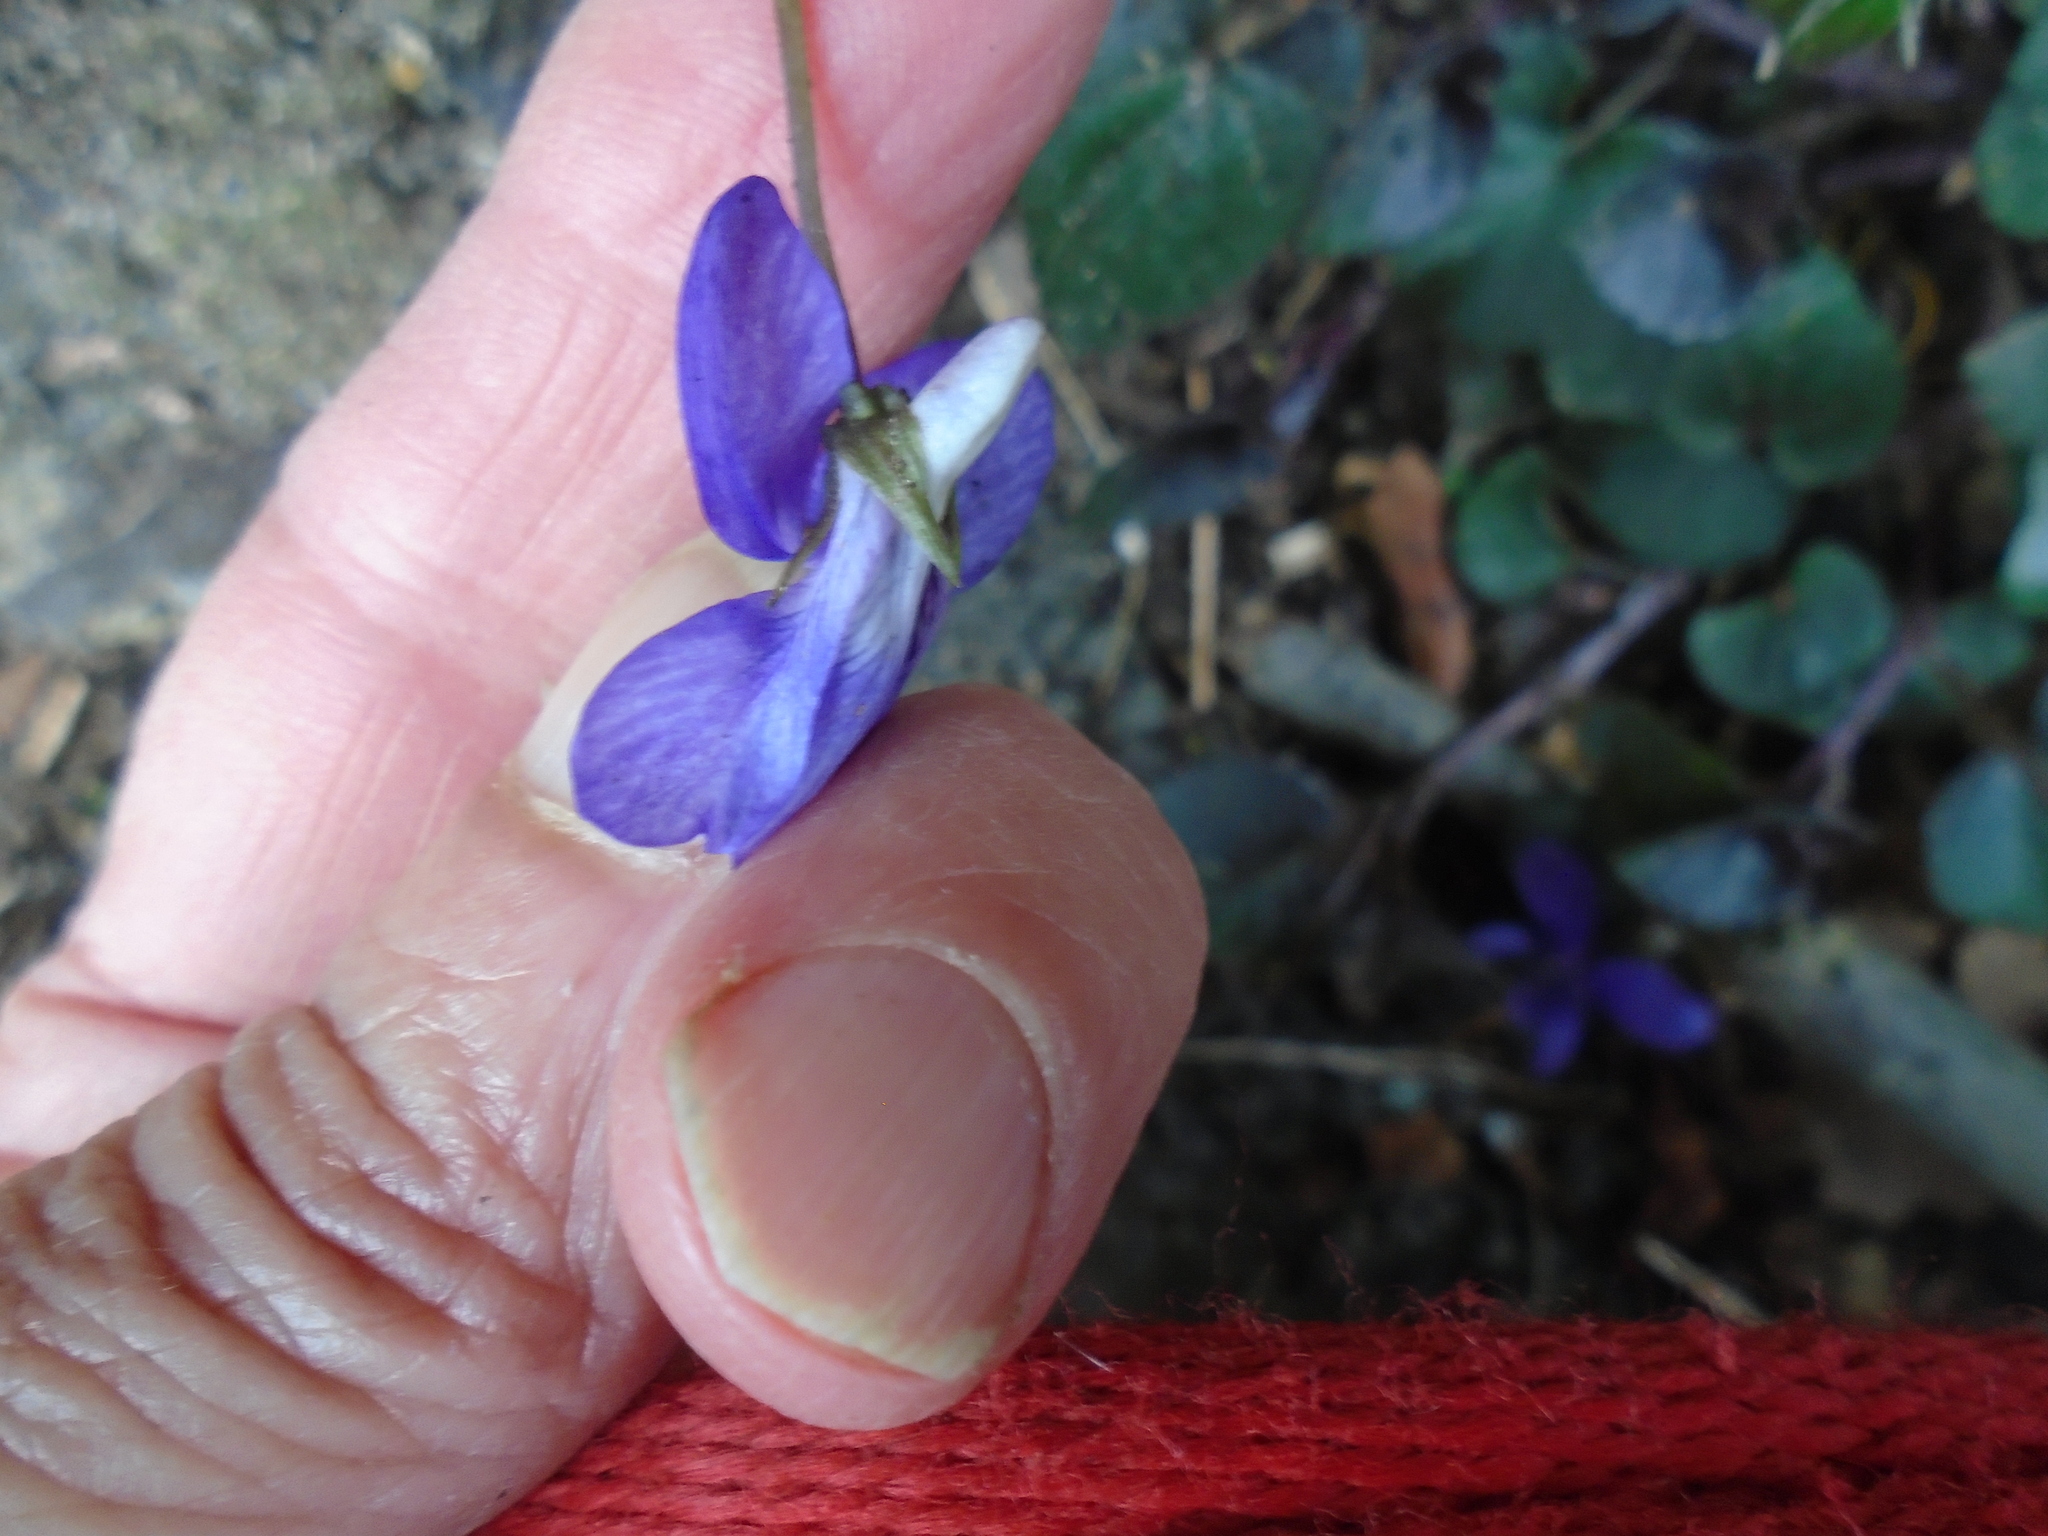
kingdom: Plantae
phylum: Tracheophyta
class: Magnoliopsida
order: Malpighiales
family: Violaceae
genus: Viola
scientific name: Viola riviniana
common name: Common dog-violet
